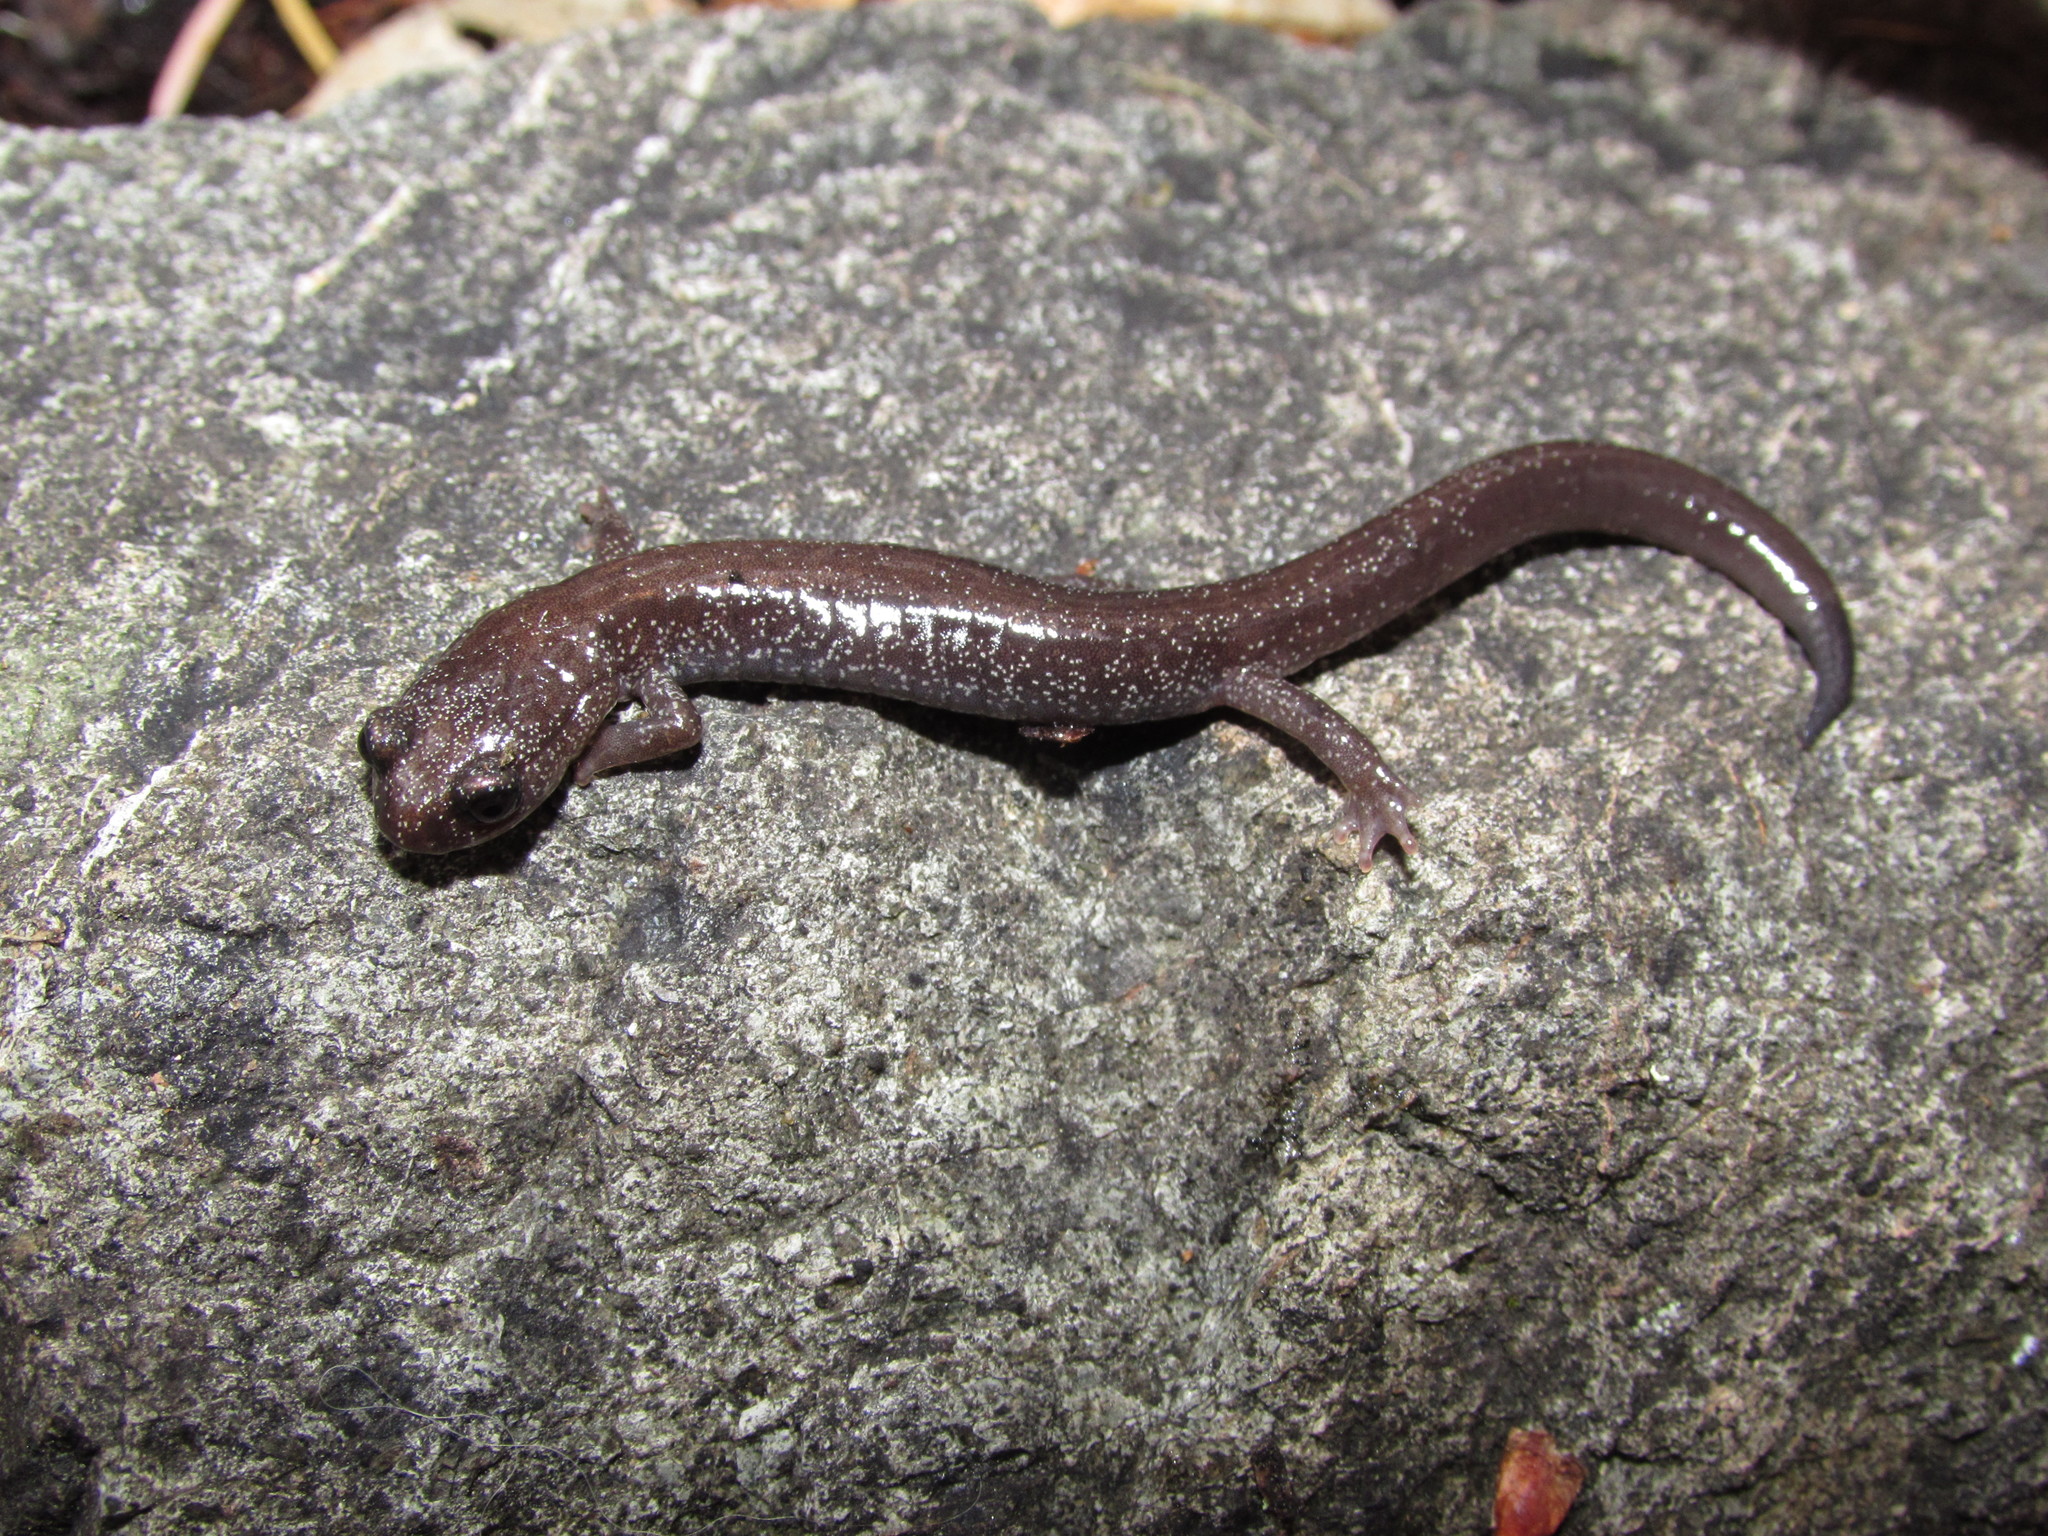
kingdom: Animalia
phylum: Chordata
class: Amphibia
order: Caudata
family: Plethodontidae
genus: Plethodon
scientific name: Plethodon stormi
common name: Siskiyou mountains salamander
